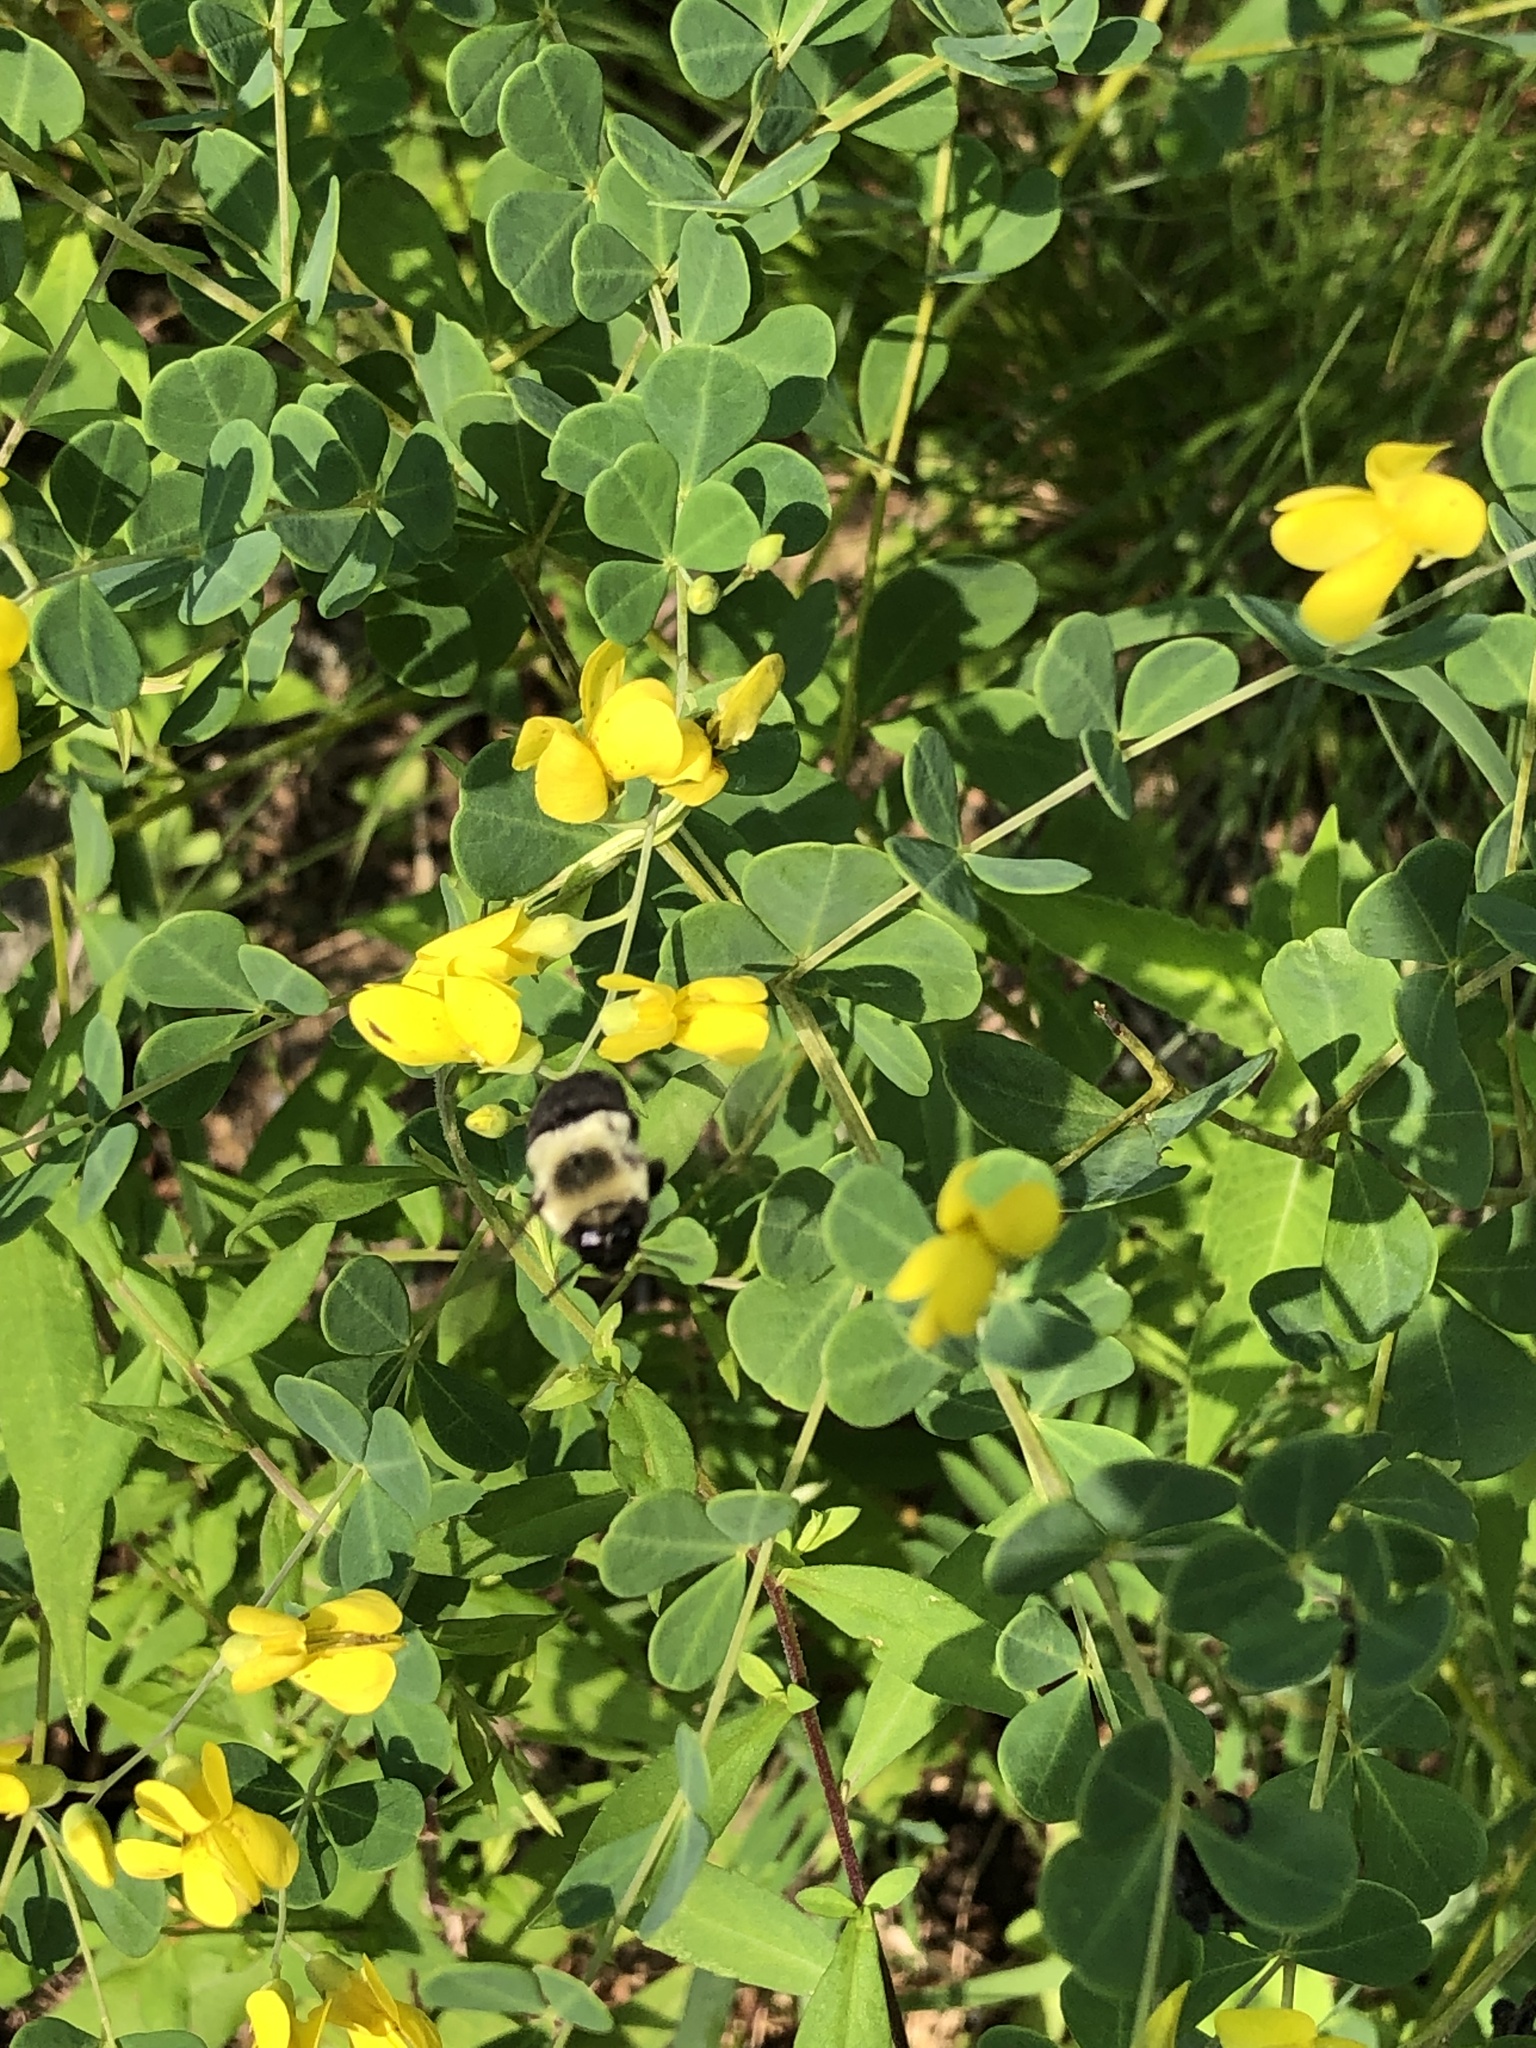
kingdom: Animalia
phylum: Arthropoda
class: Insecta
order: Hymenoptera
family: Apidae
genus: Bombus
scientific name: Bombus impatiens
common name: Common eastern bumble bee
